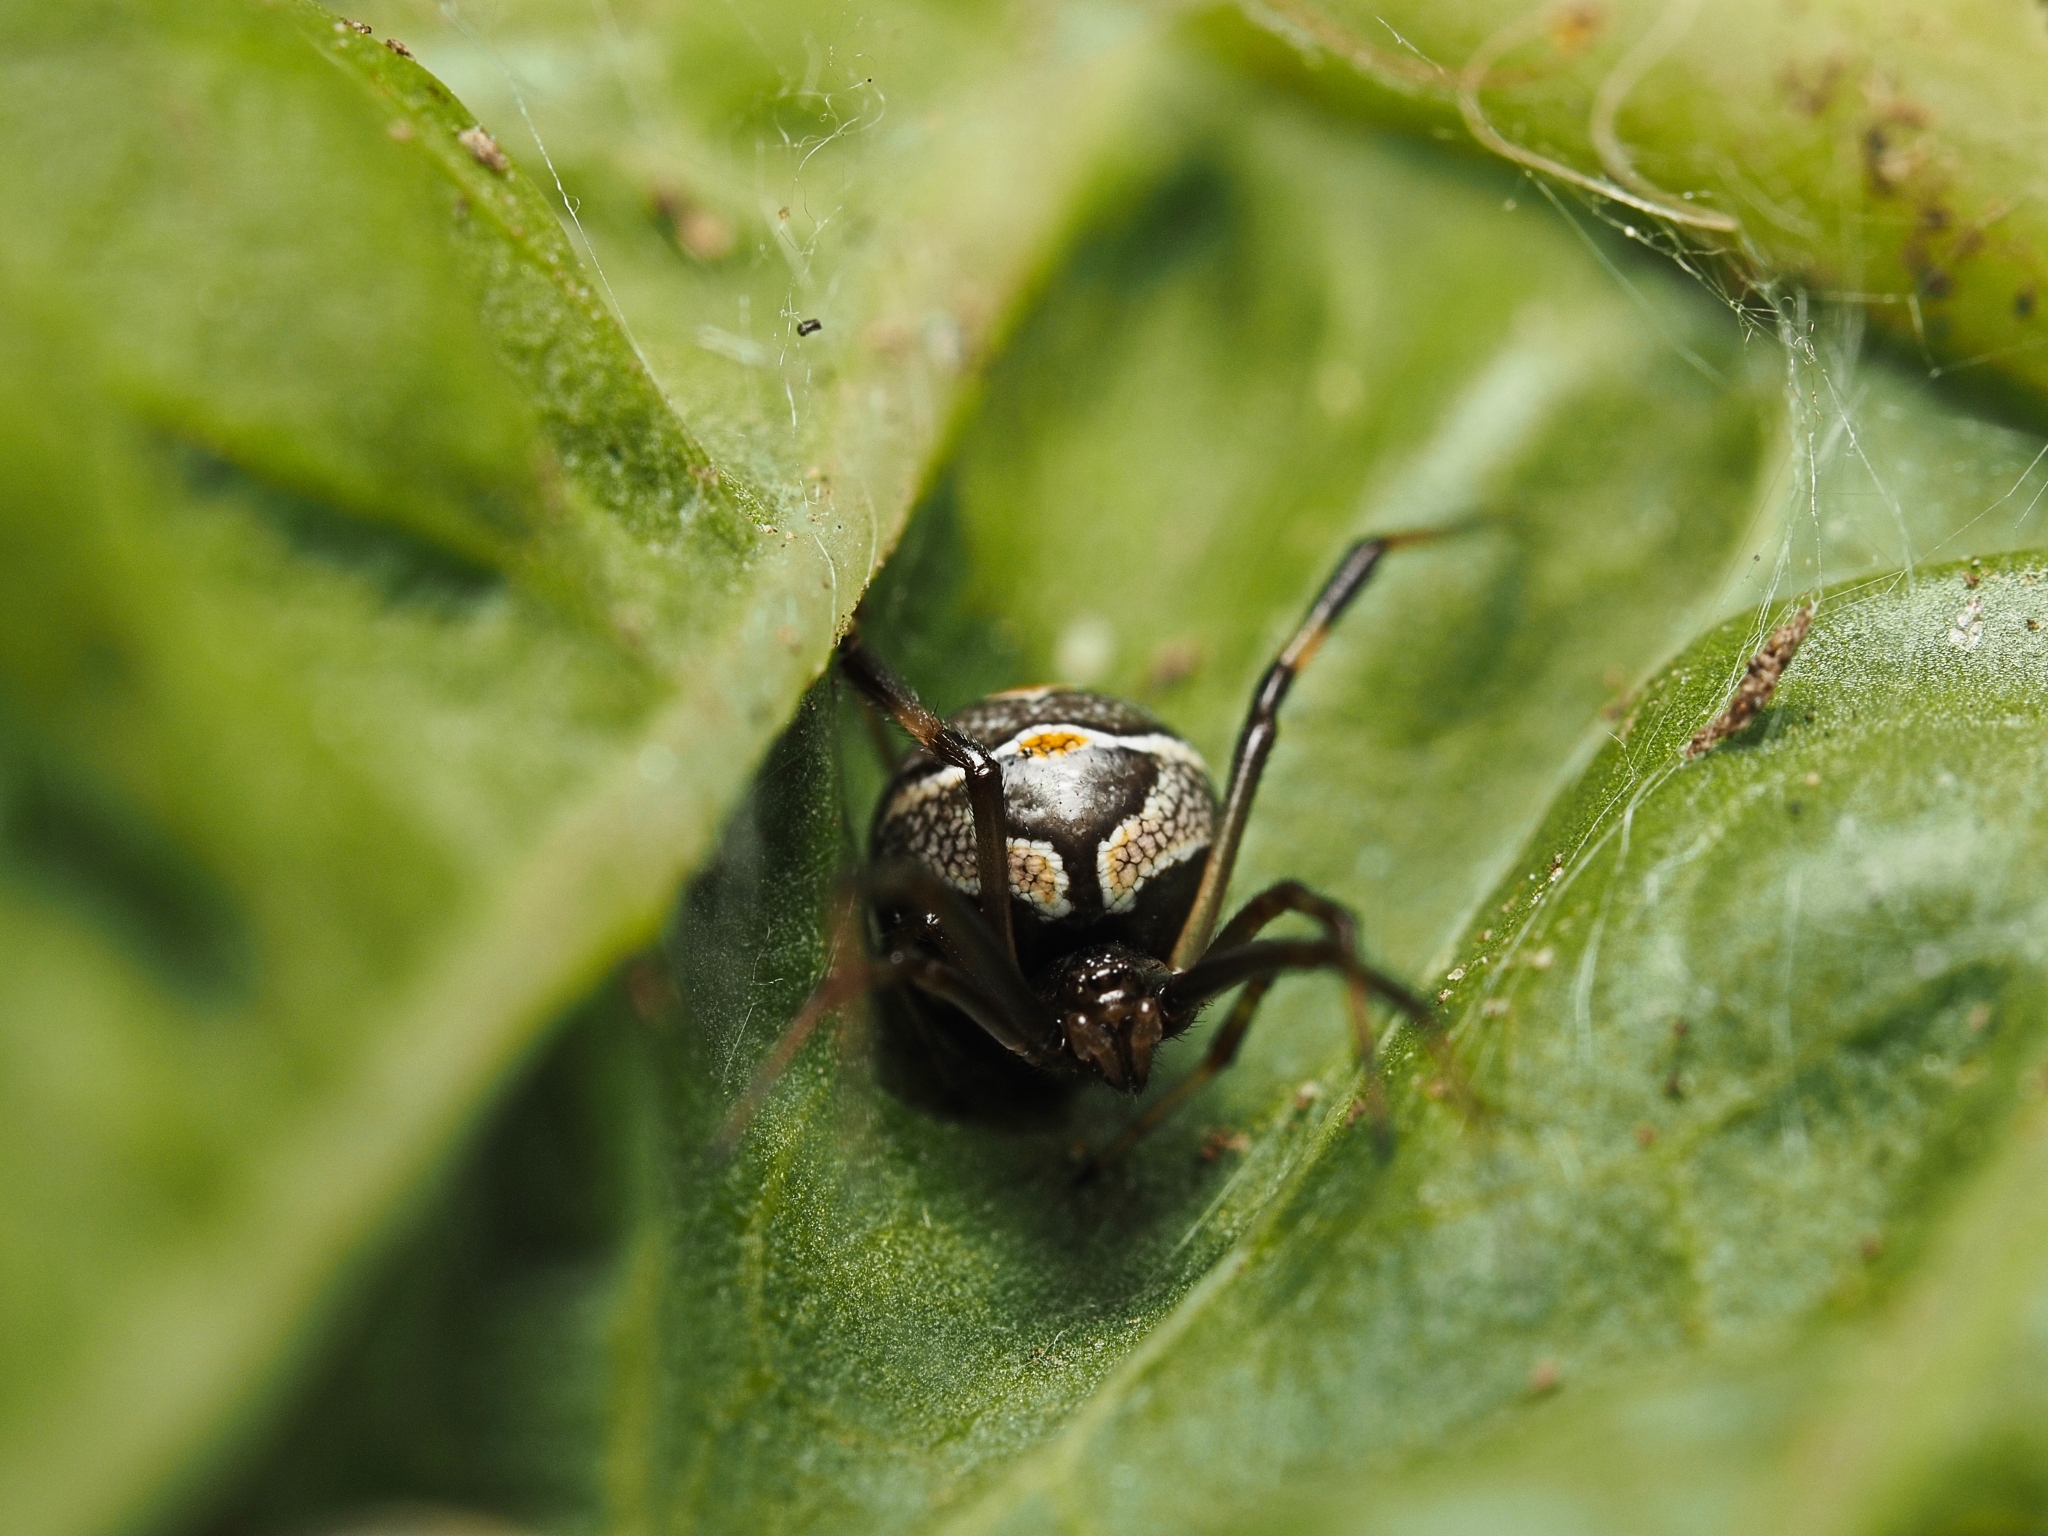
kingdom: Animalia
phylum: Arthropoda
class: Arachnida
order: Araneae
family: Theridiidae
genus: Latrodectus
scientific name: Latrodectus hasselti
